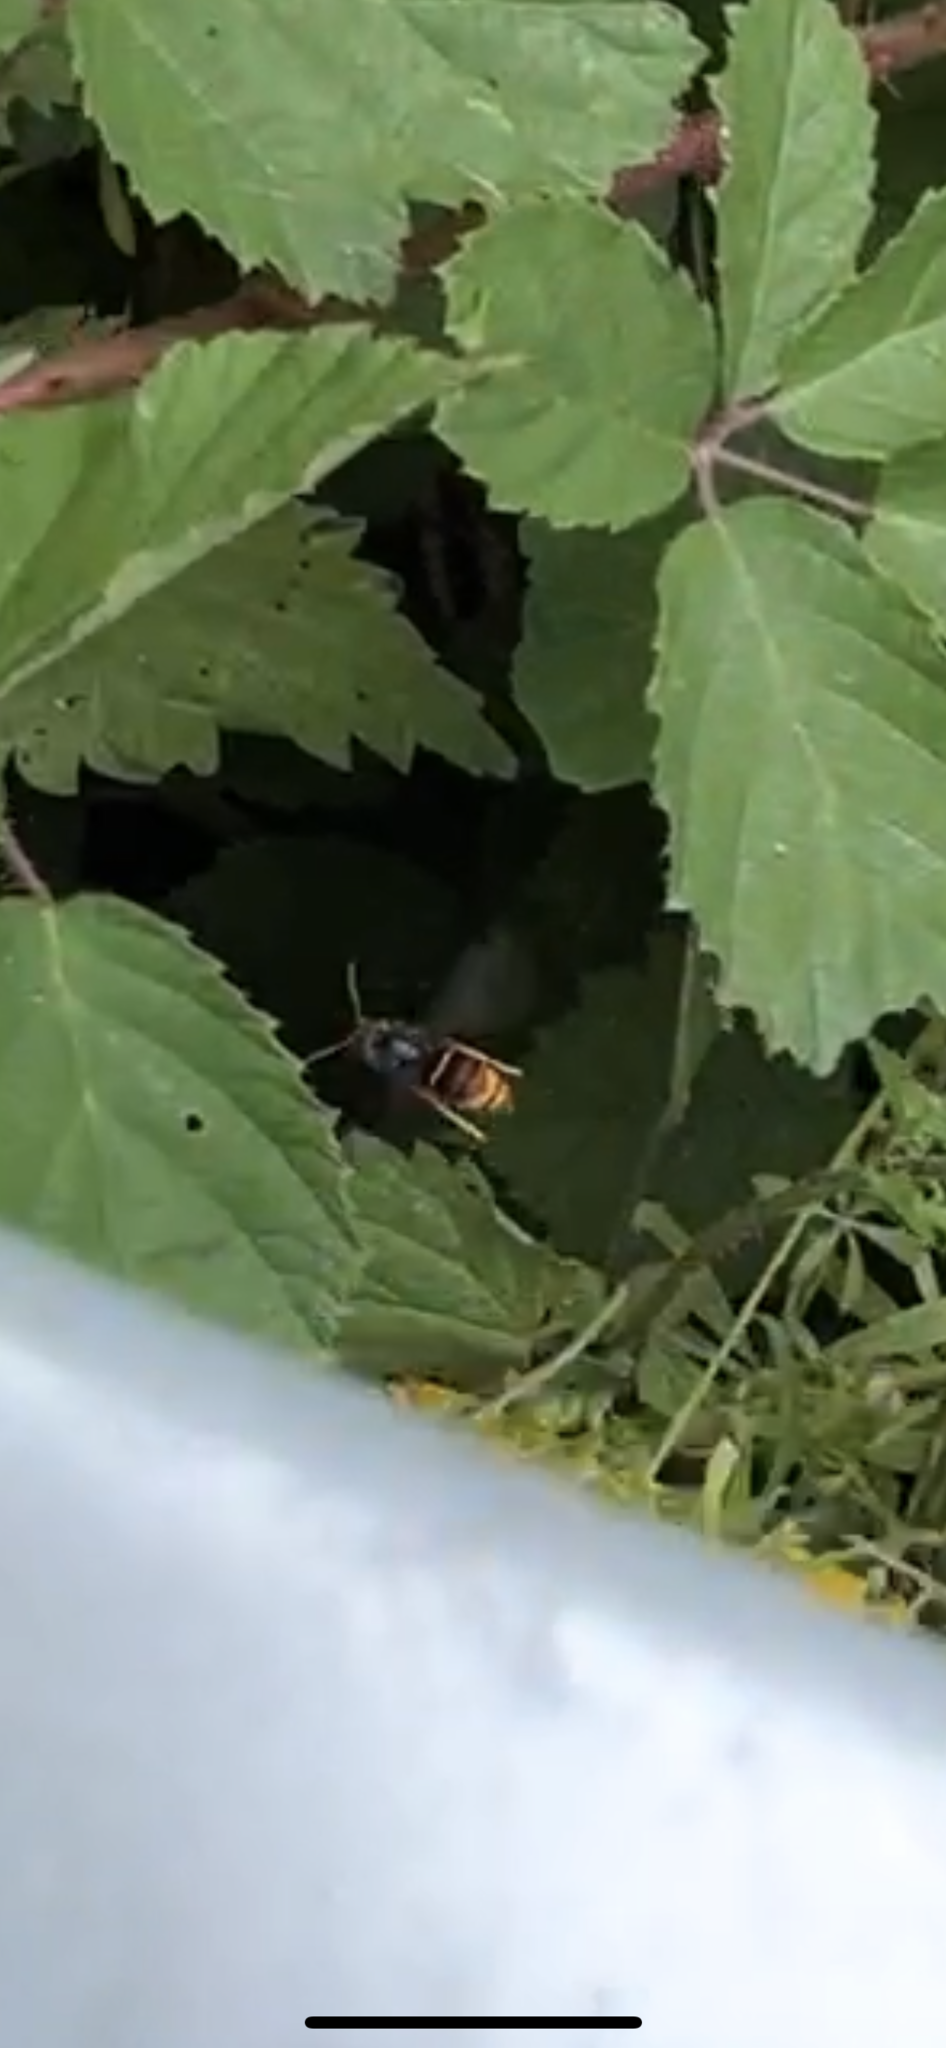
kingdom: Animalia
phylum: Arthropoda
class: Insecta
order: Hymenoptera
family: Vespidae
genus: Vespa
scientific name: Vespa velutina
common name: Asian hornet
